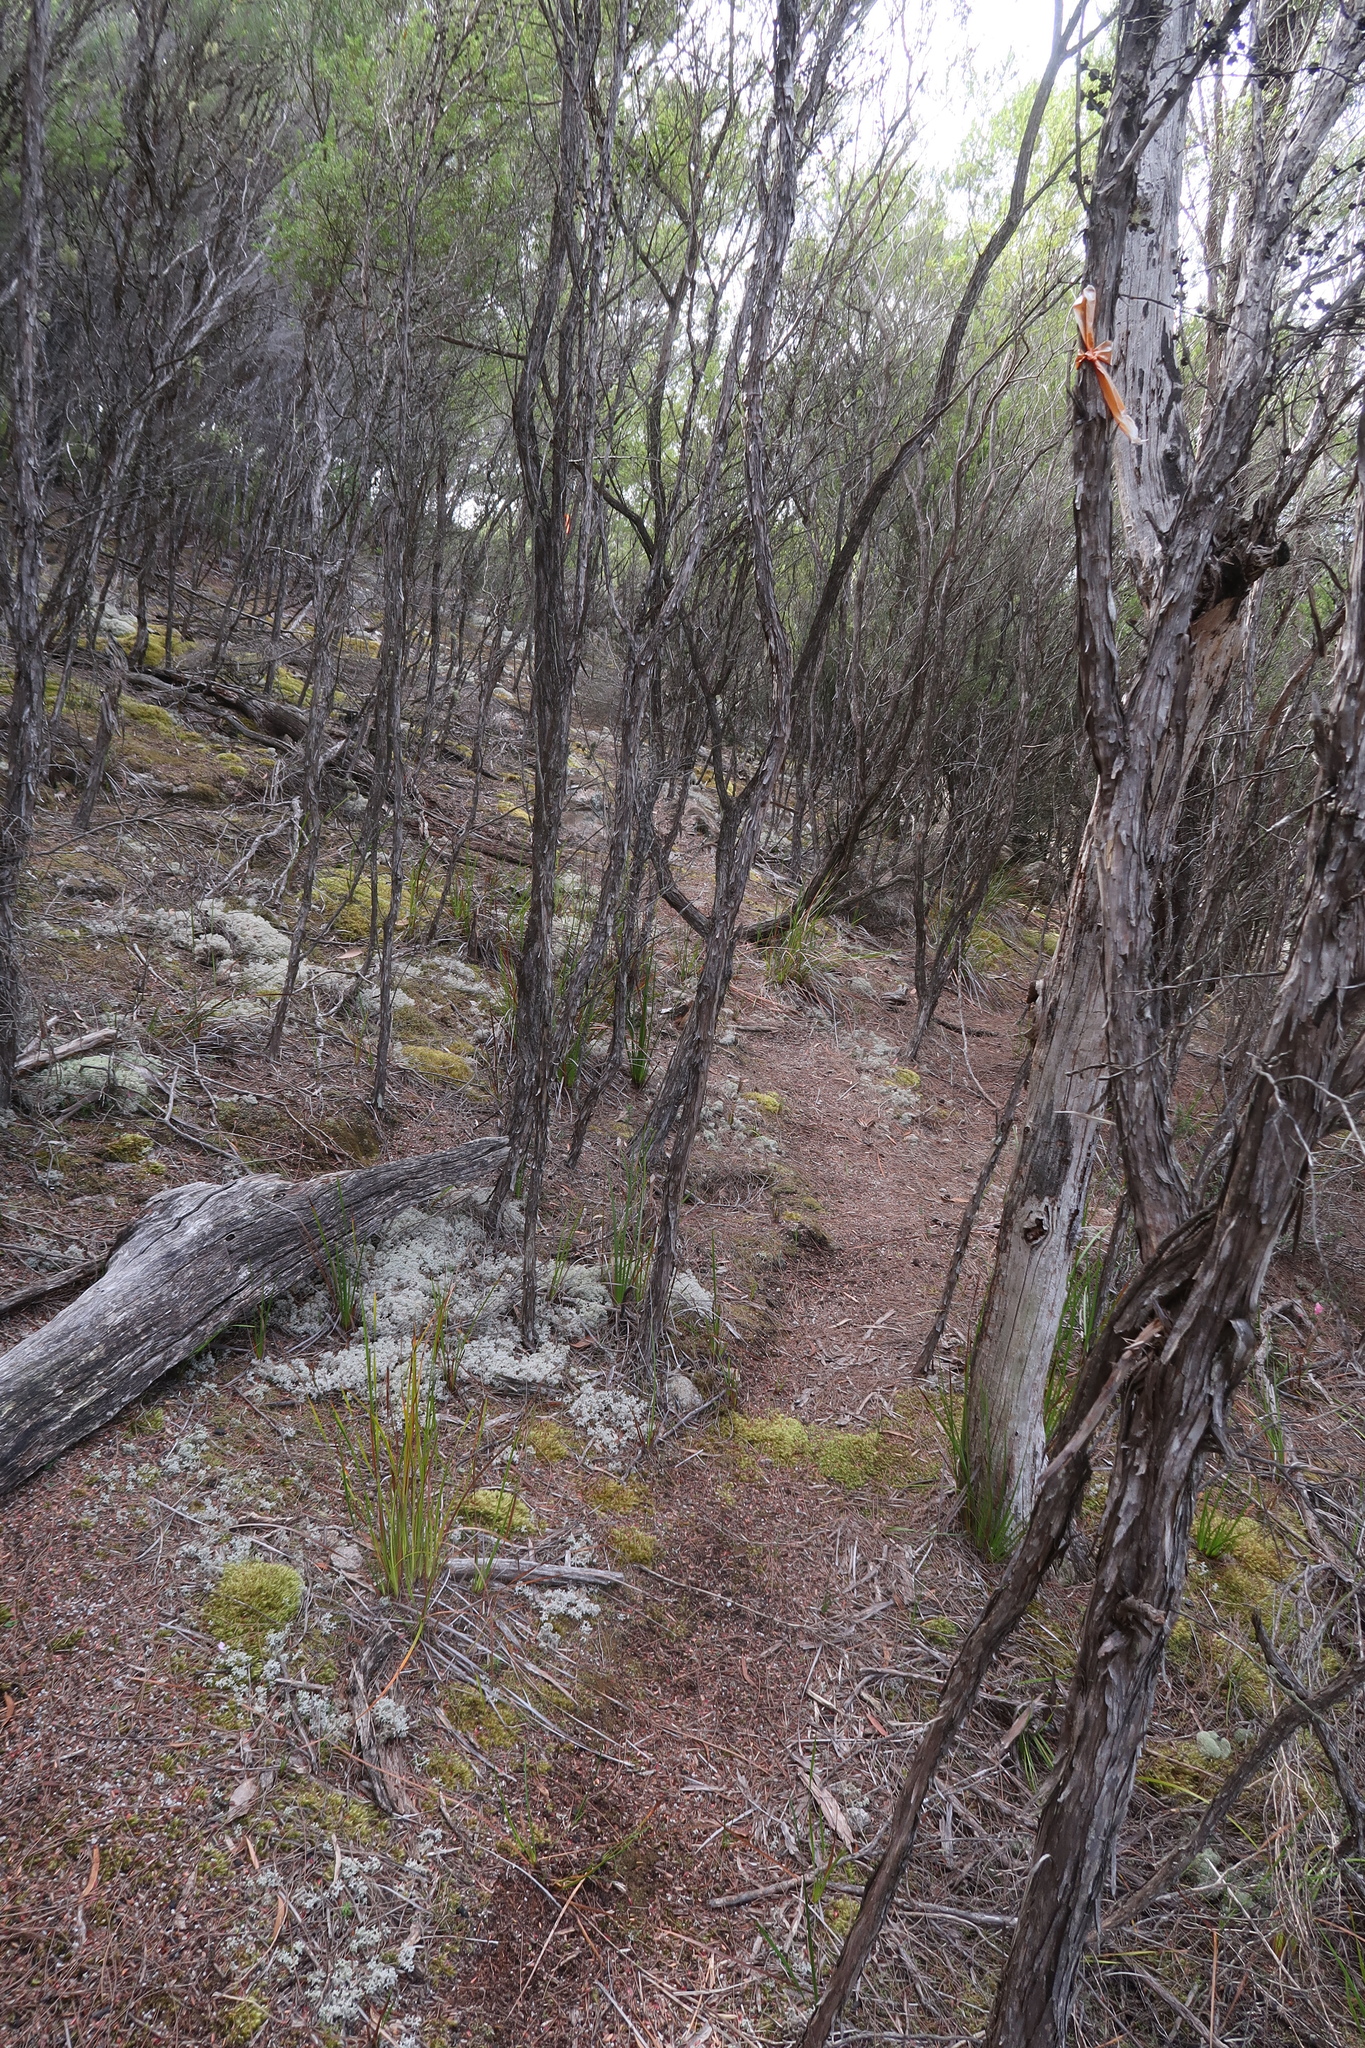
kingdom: Plantae
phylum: Tracheophyta
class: Liliopsida
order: Asparagales
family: Orchidaceae
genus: Eriochilus
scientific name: Eriochilus cucullatus
